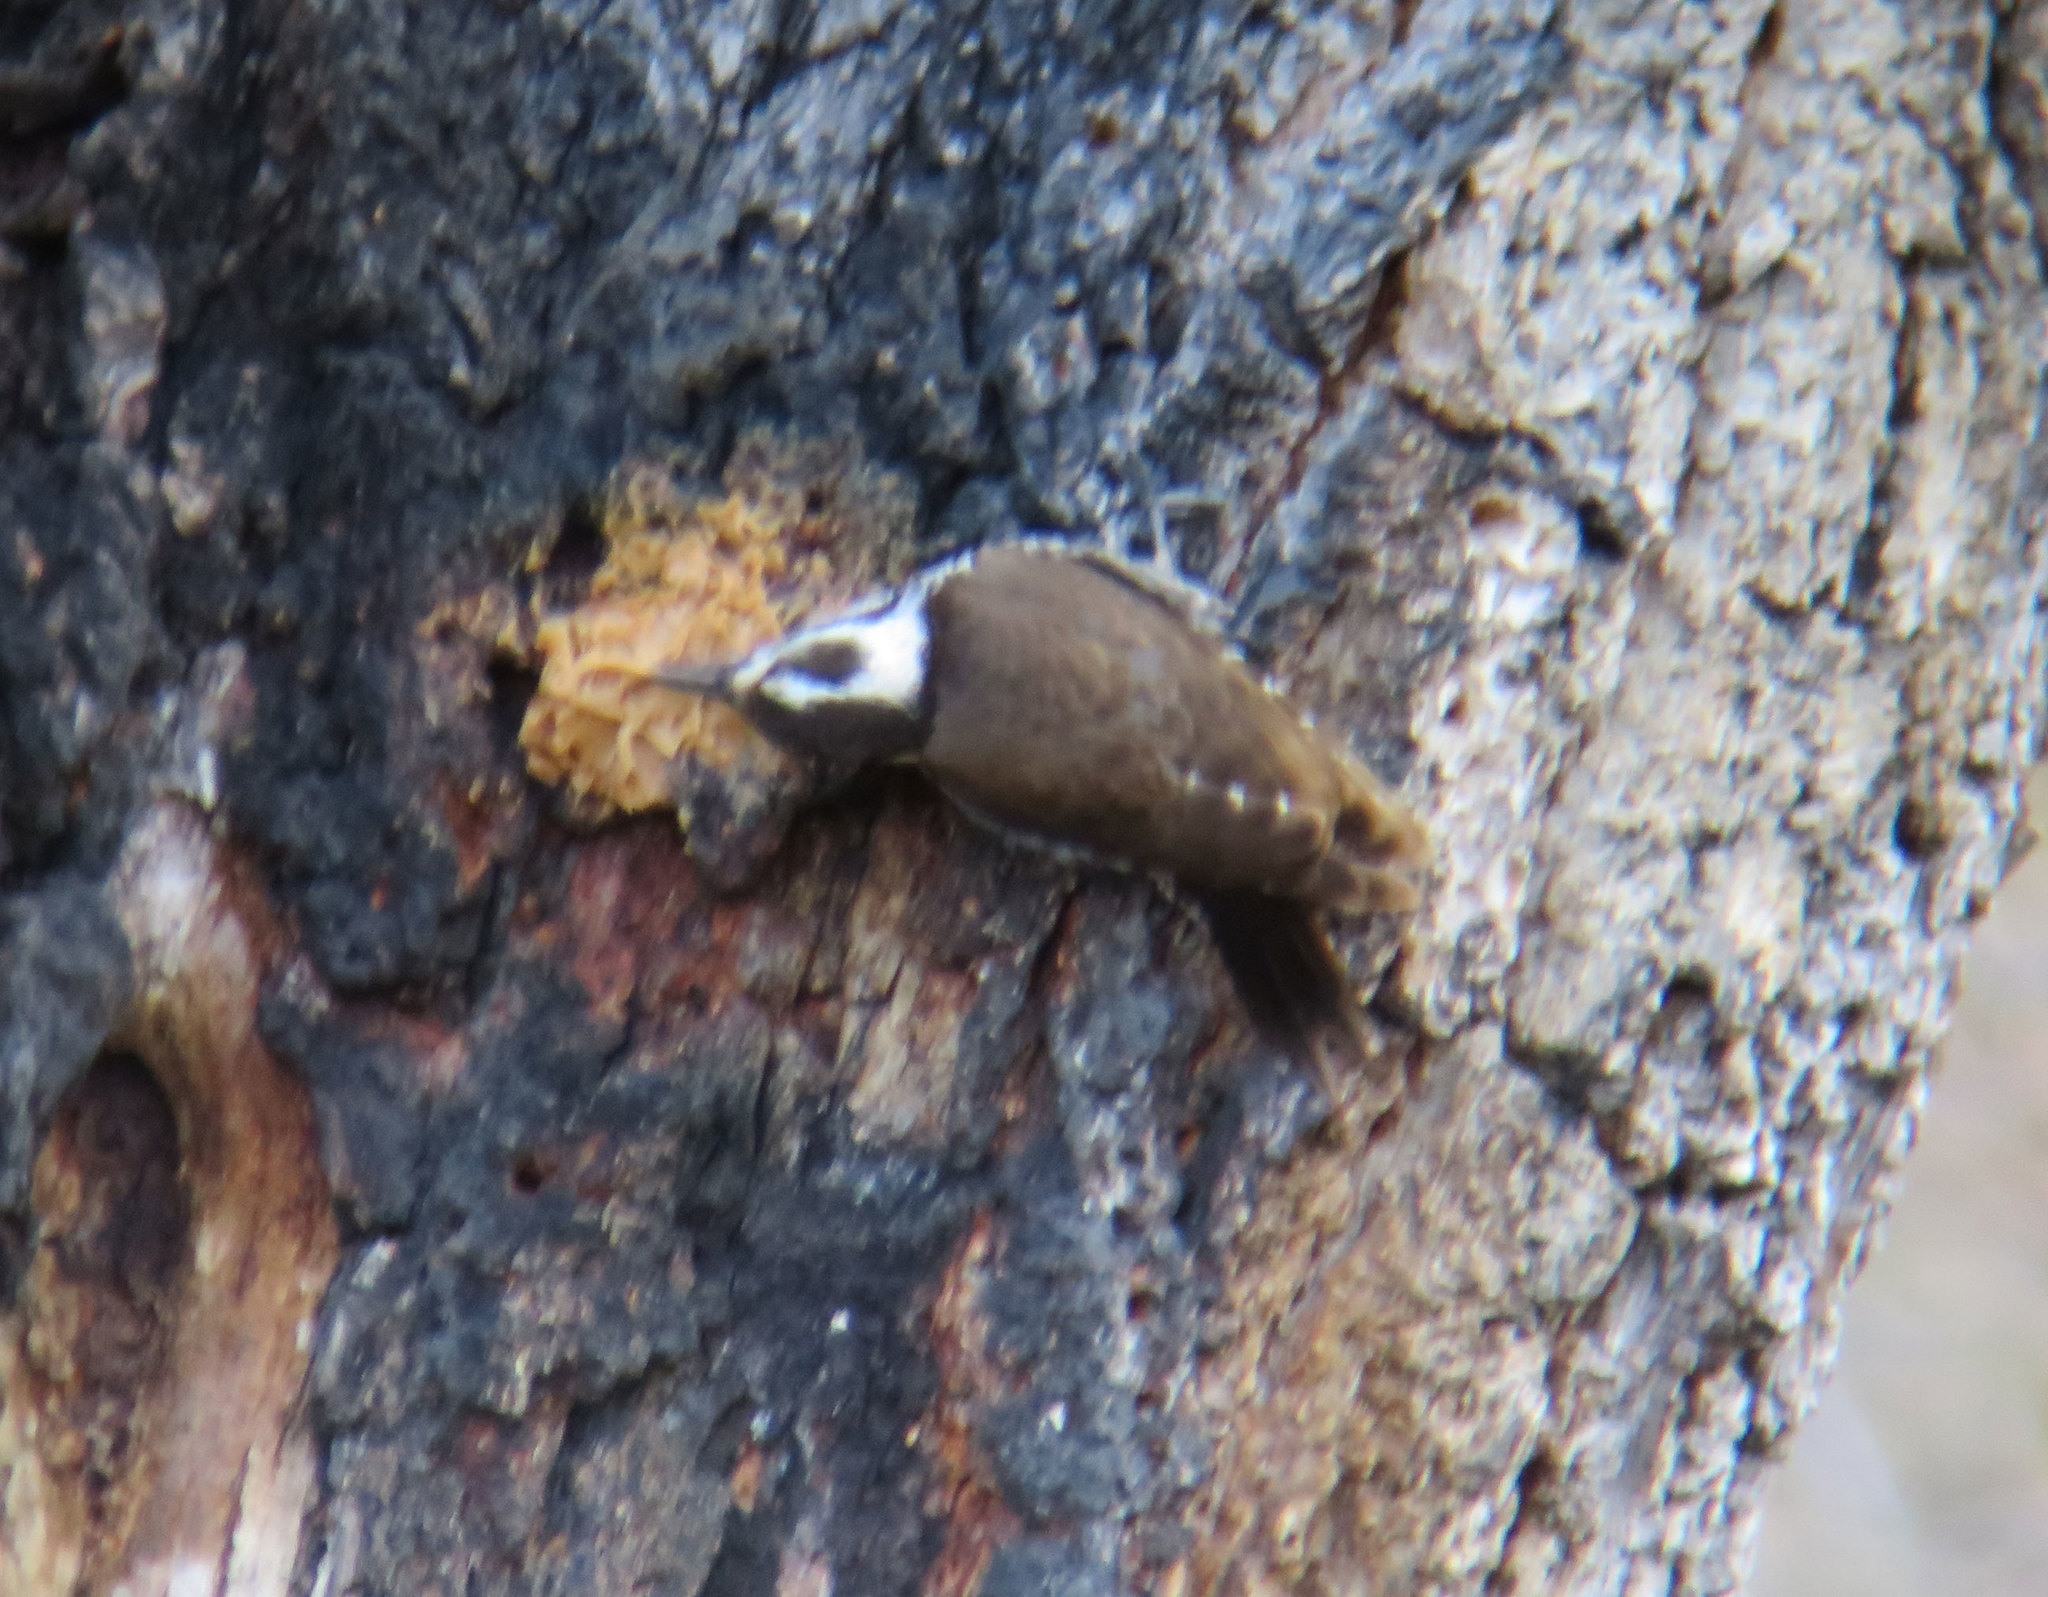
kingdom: Animalia
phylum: Chordata
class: Aves
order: Piciformes
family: Picidae
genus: Leuconotopicus
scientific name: Leuconotopicus arizonae
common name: Arizona woodpecker
